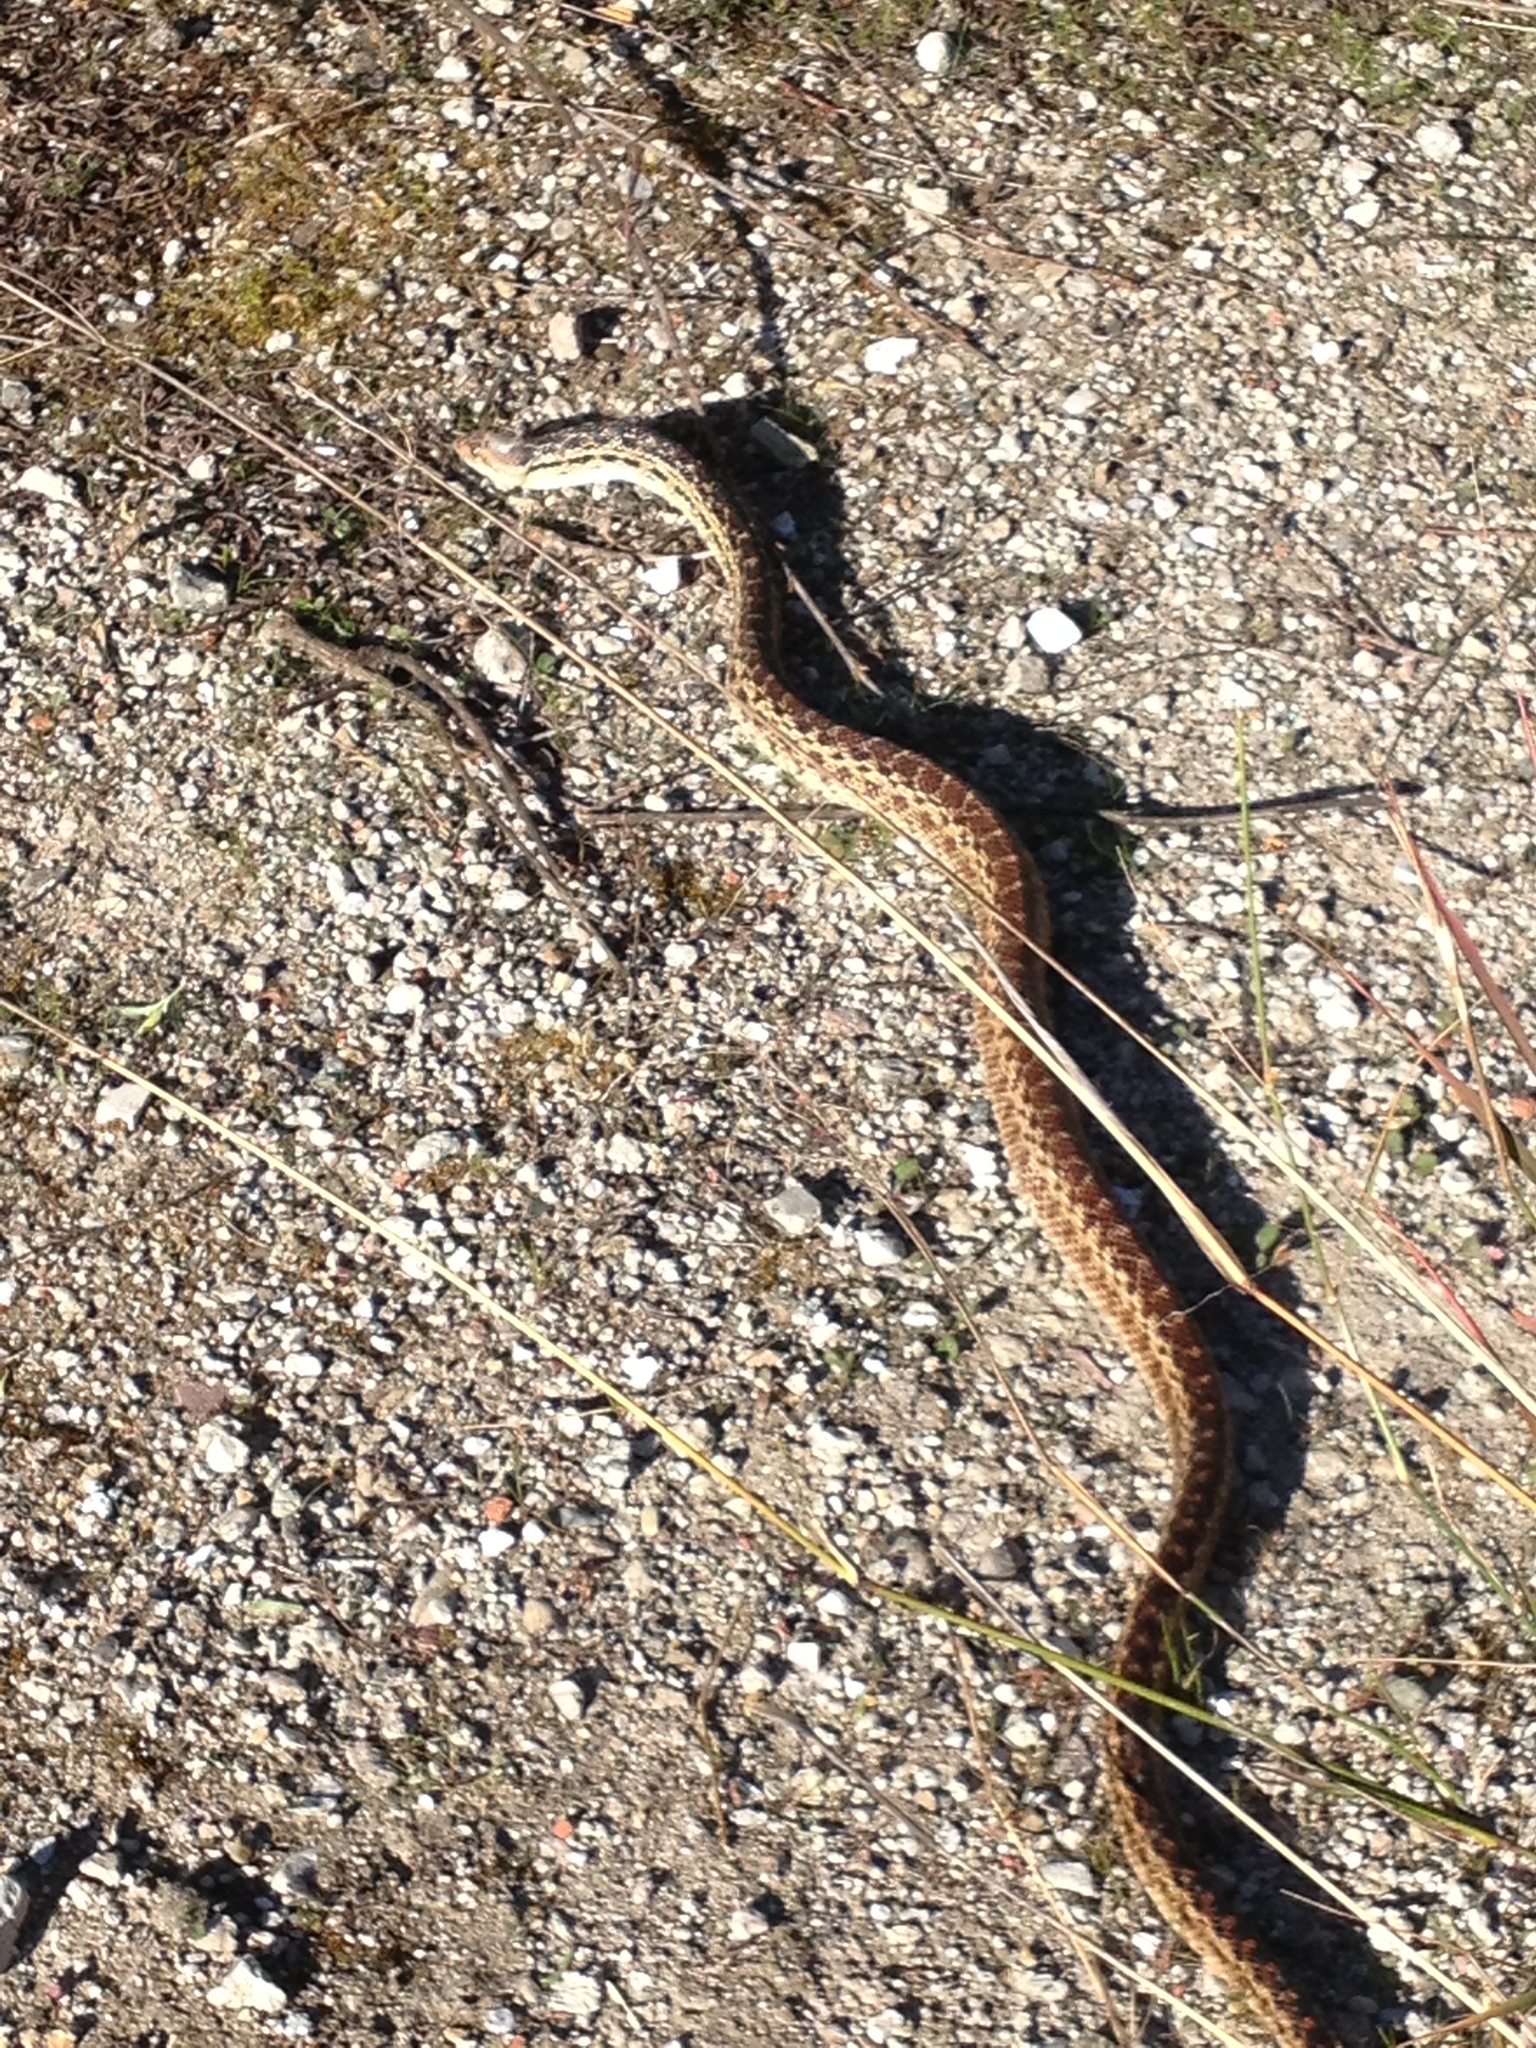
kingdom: Animalia
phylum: Chordata
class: Squamata
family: Colubridae
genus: Pituophis
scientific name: Pituophis catenifer
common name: Gopher snake
